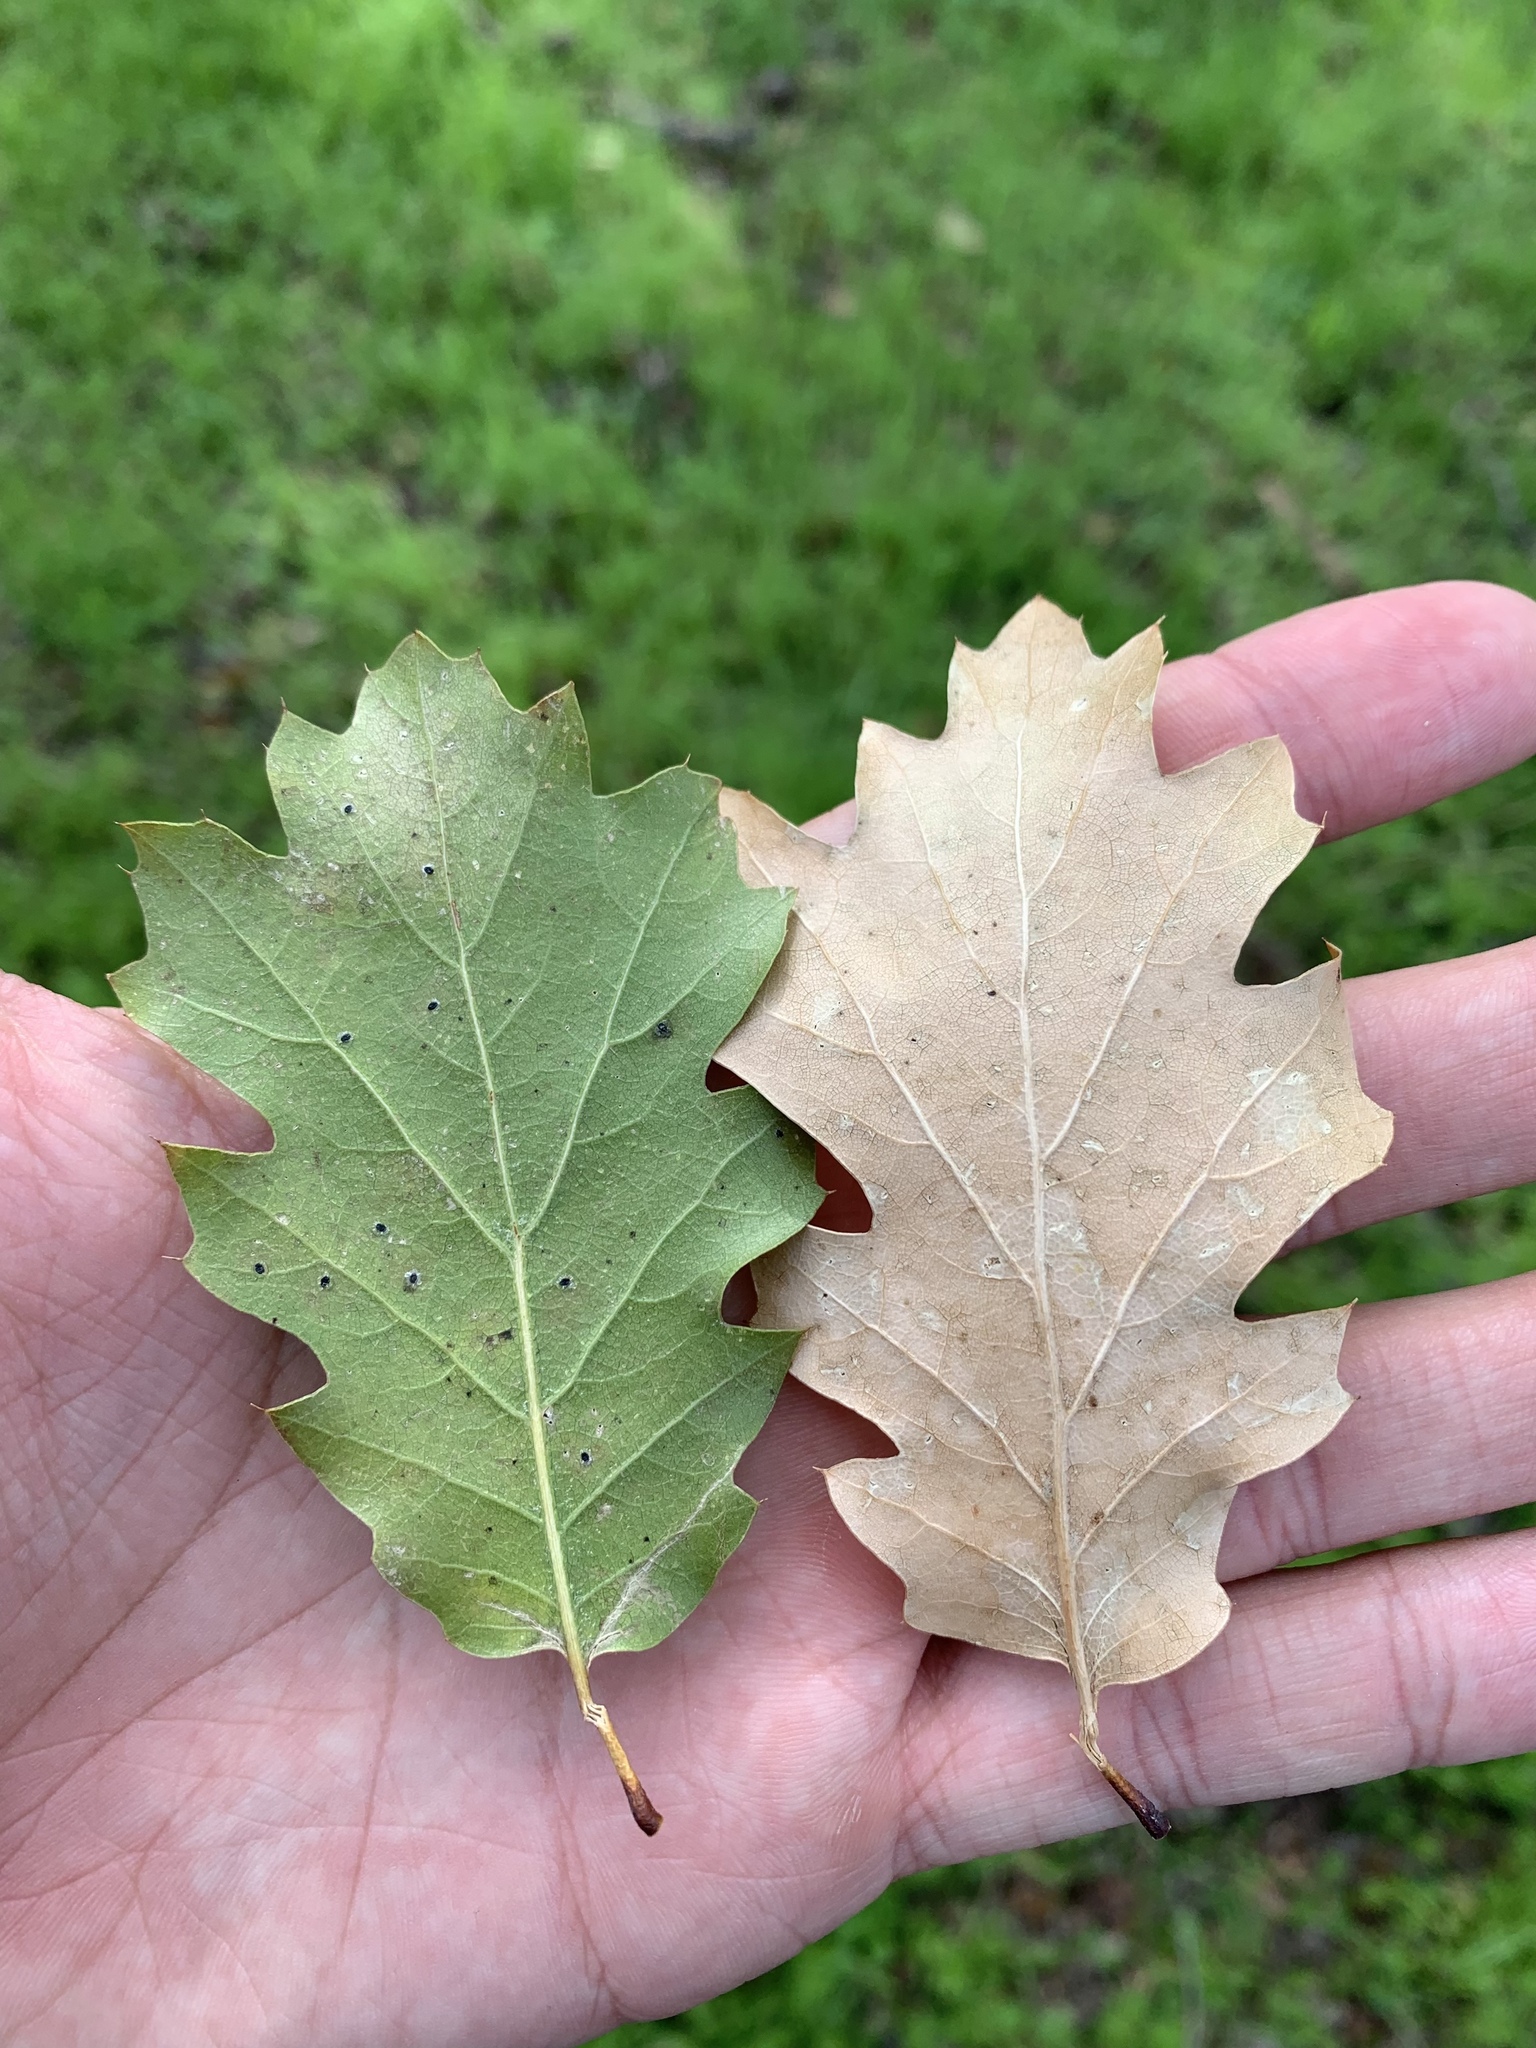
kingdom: Plantae
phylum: Tracheophyta
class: Magnoliopsida
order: Fagales
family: Fagaceae
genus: Quercus
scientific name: Quercus morehus
